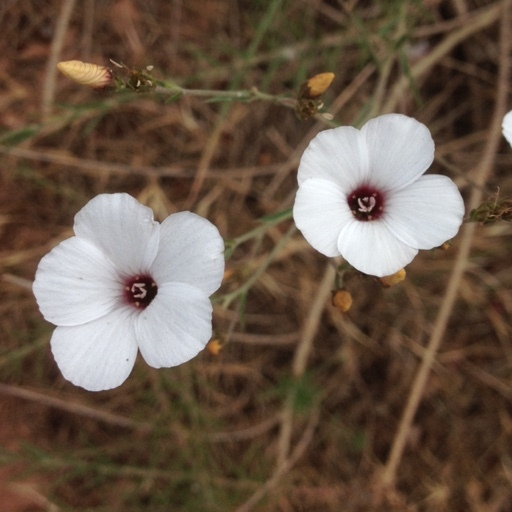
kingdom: Plantae
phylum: Tracheophyta
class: Magnoliopsida
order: Malpighiales
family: Linaceae
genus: Linum
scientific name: Linum tenuifolium
